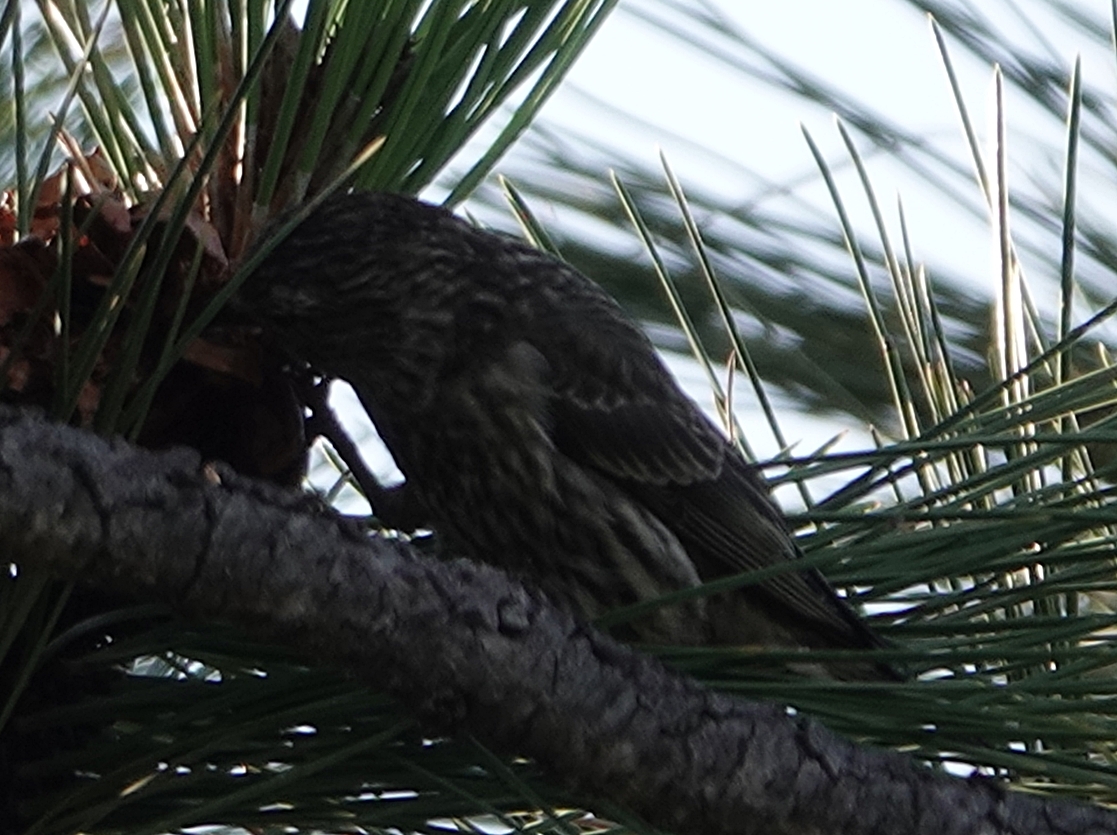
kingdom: Animalia
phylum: Chordata
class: Aves
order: Passeriformes
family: Fringillidae
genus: Loxia
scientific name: Loxia curvirostra
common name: Red crossbill
